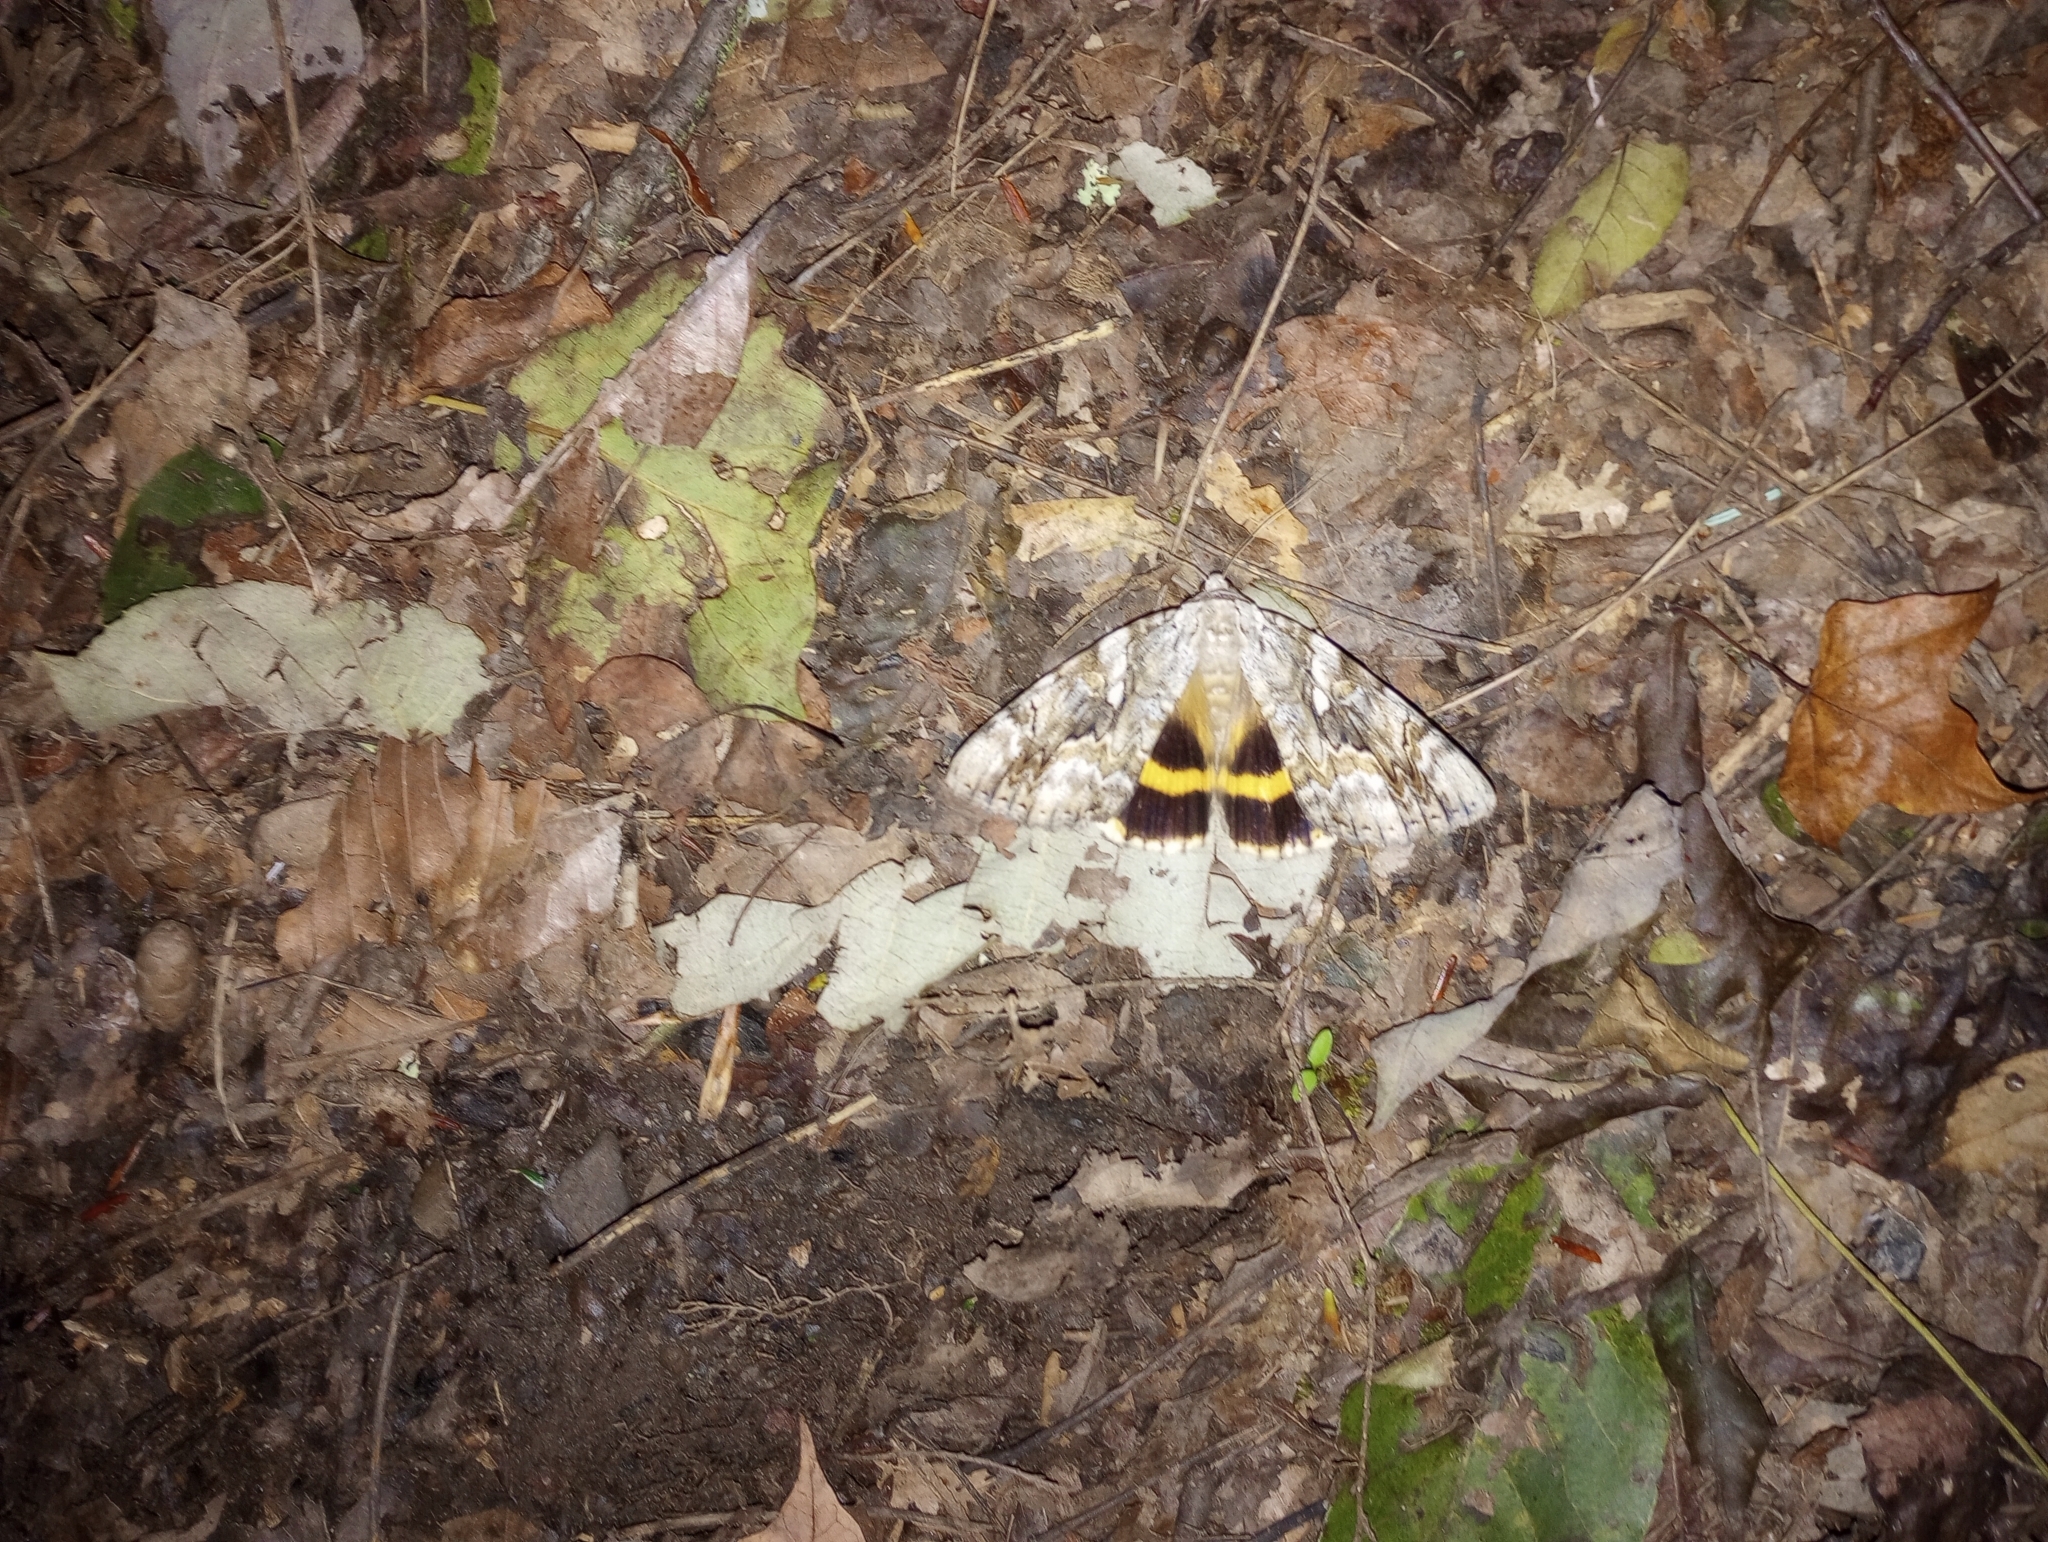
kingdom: Animalia
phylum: Arthropoda
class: Insecta
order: Lepidoptera
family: Erebidae
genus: Catocala
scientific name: Catocala cerogama
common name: Yellow banded underwing
